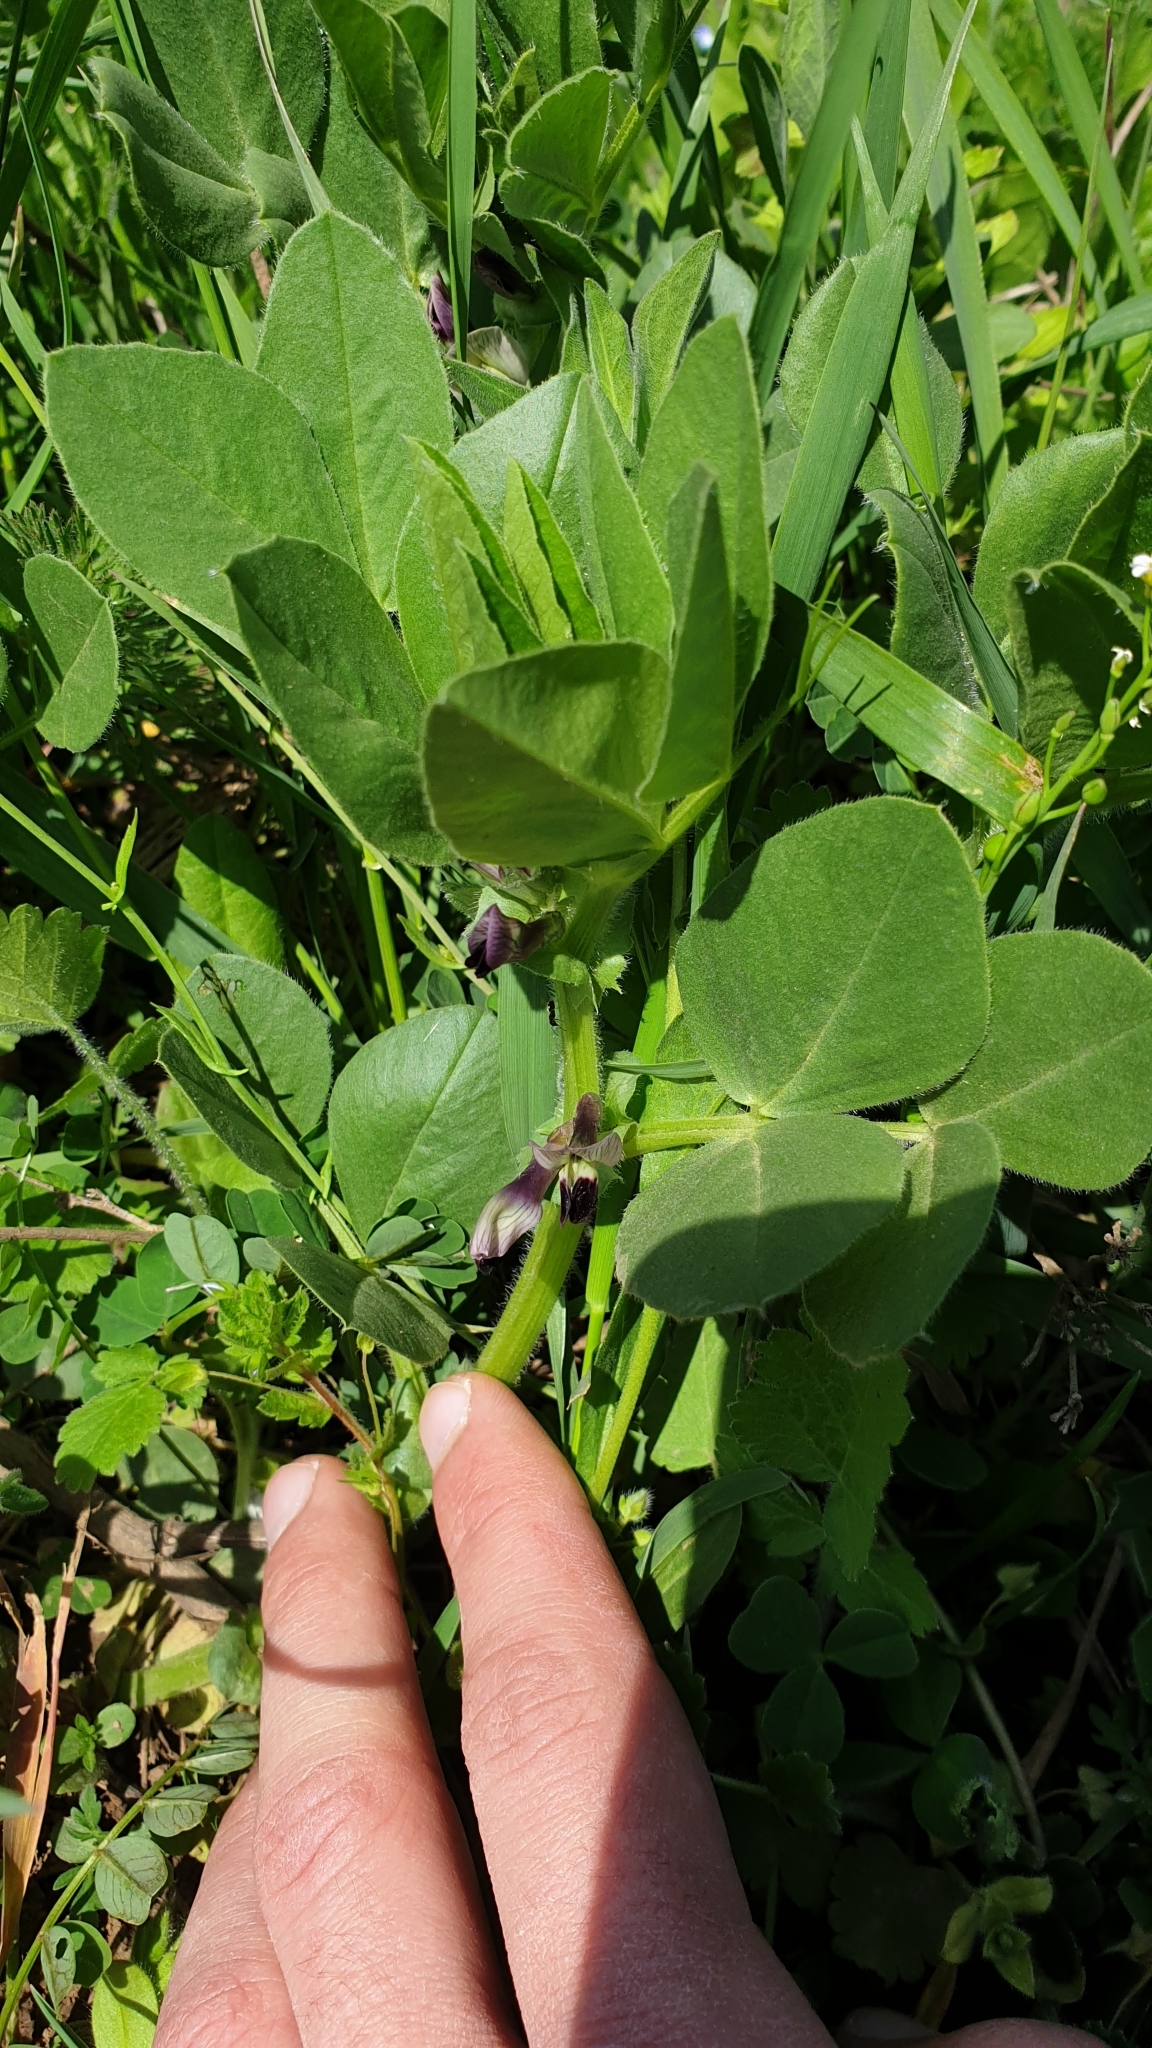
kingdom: Plantae
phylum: Tracheophyta
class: Magnoliopsida
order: Fabales
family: Fabaceae
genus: Vicia
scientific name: Vicia narbonensis
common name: Narbonne vetch
